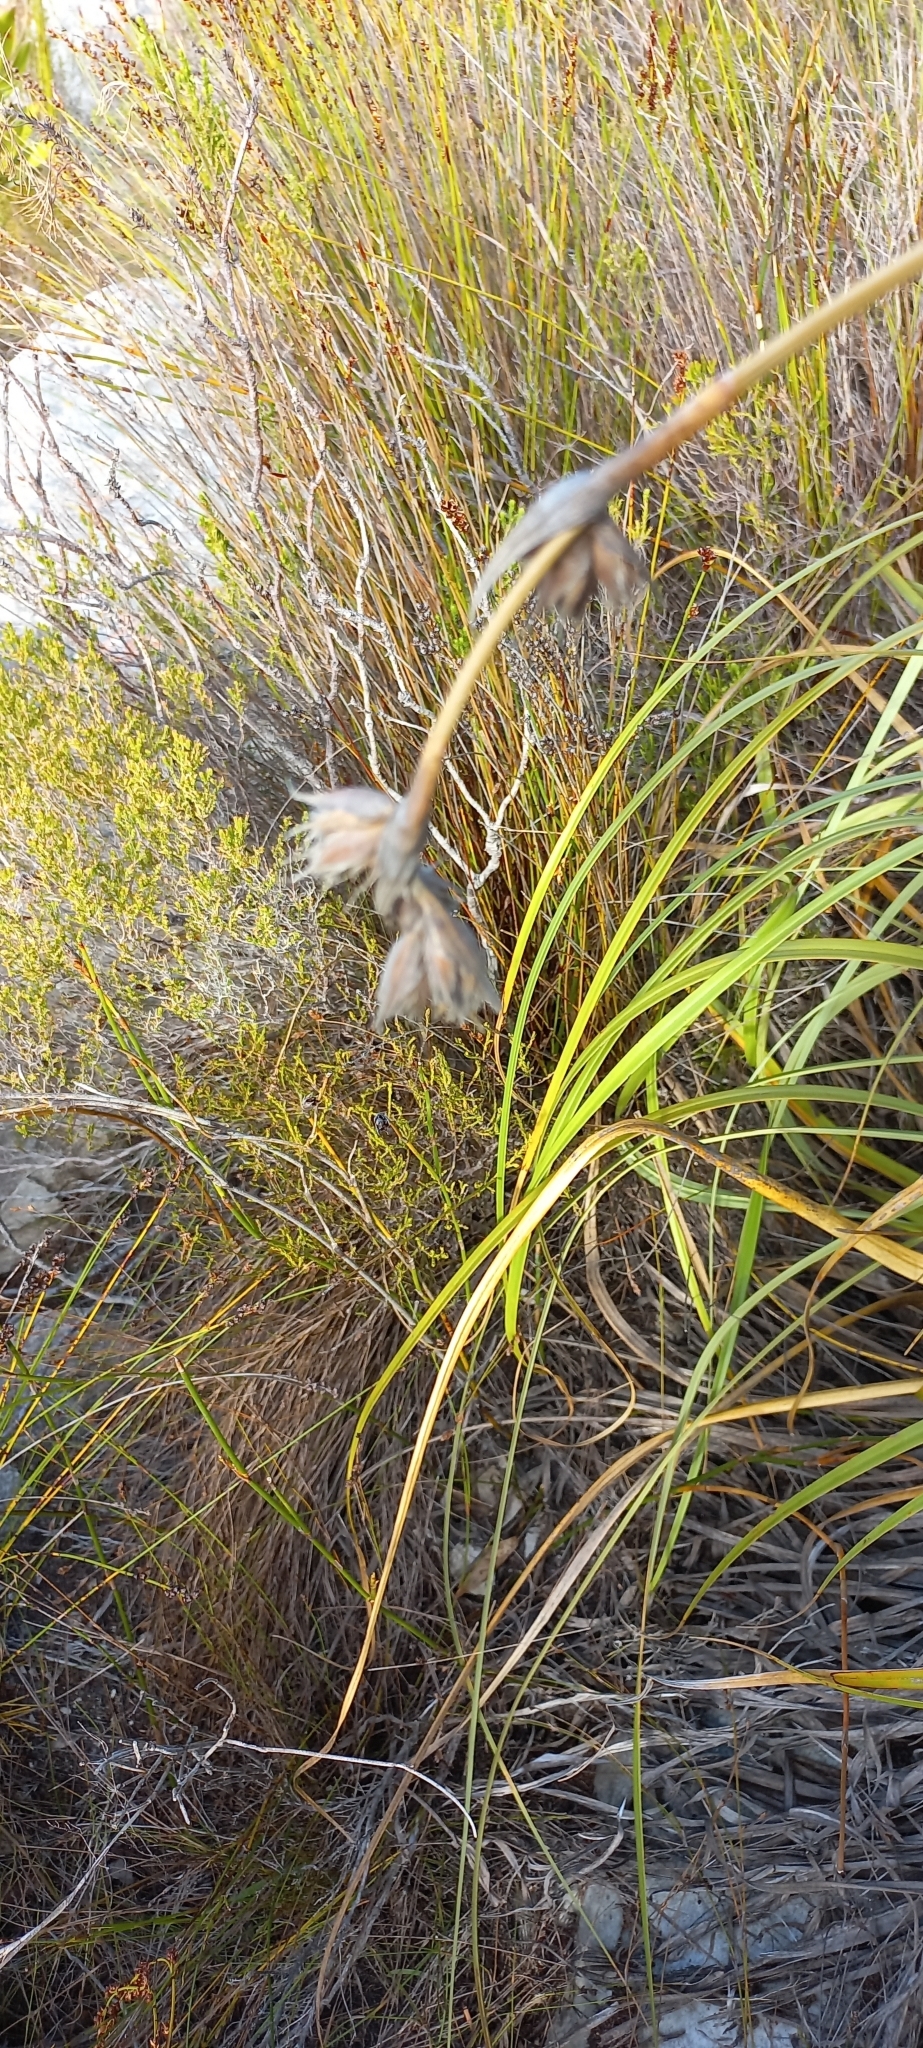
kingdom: Plantae
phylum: Tracheophyta
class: Liliopsida
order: Poales
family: Cyperaceae
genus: Tetraria
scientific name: Tetraria thermalis
